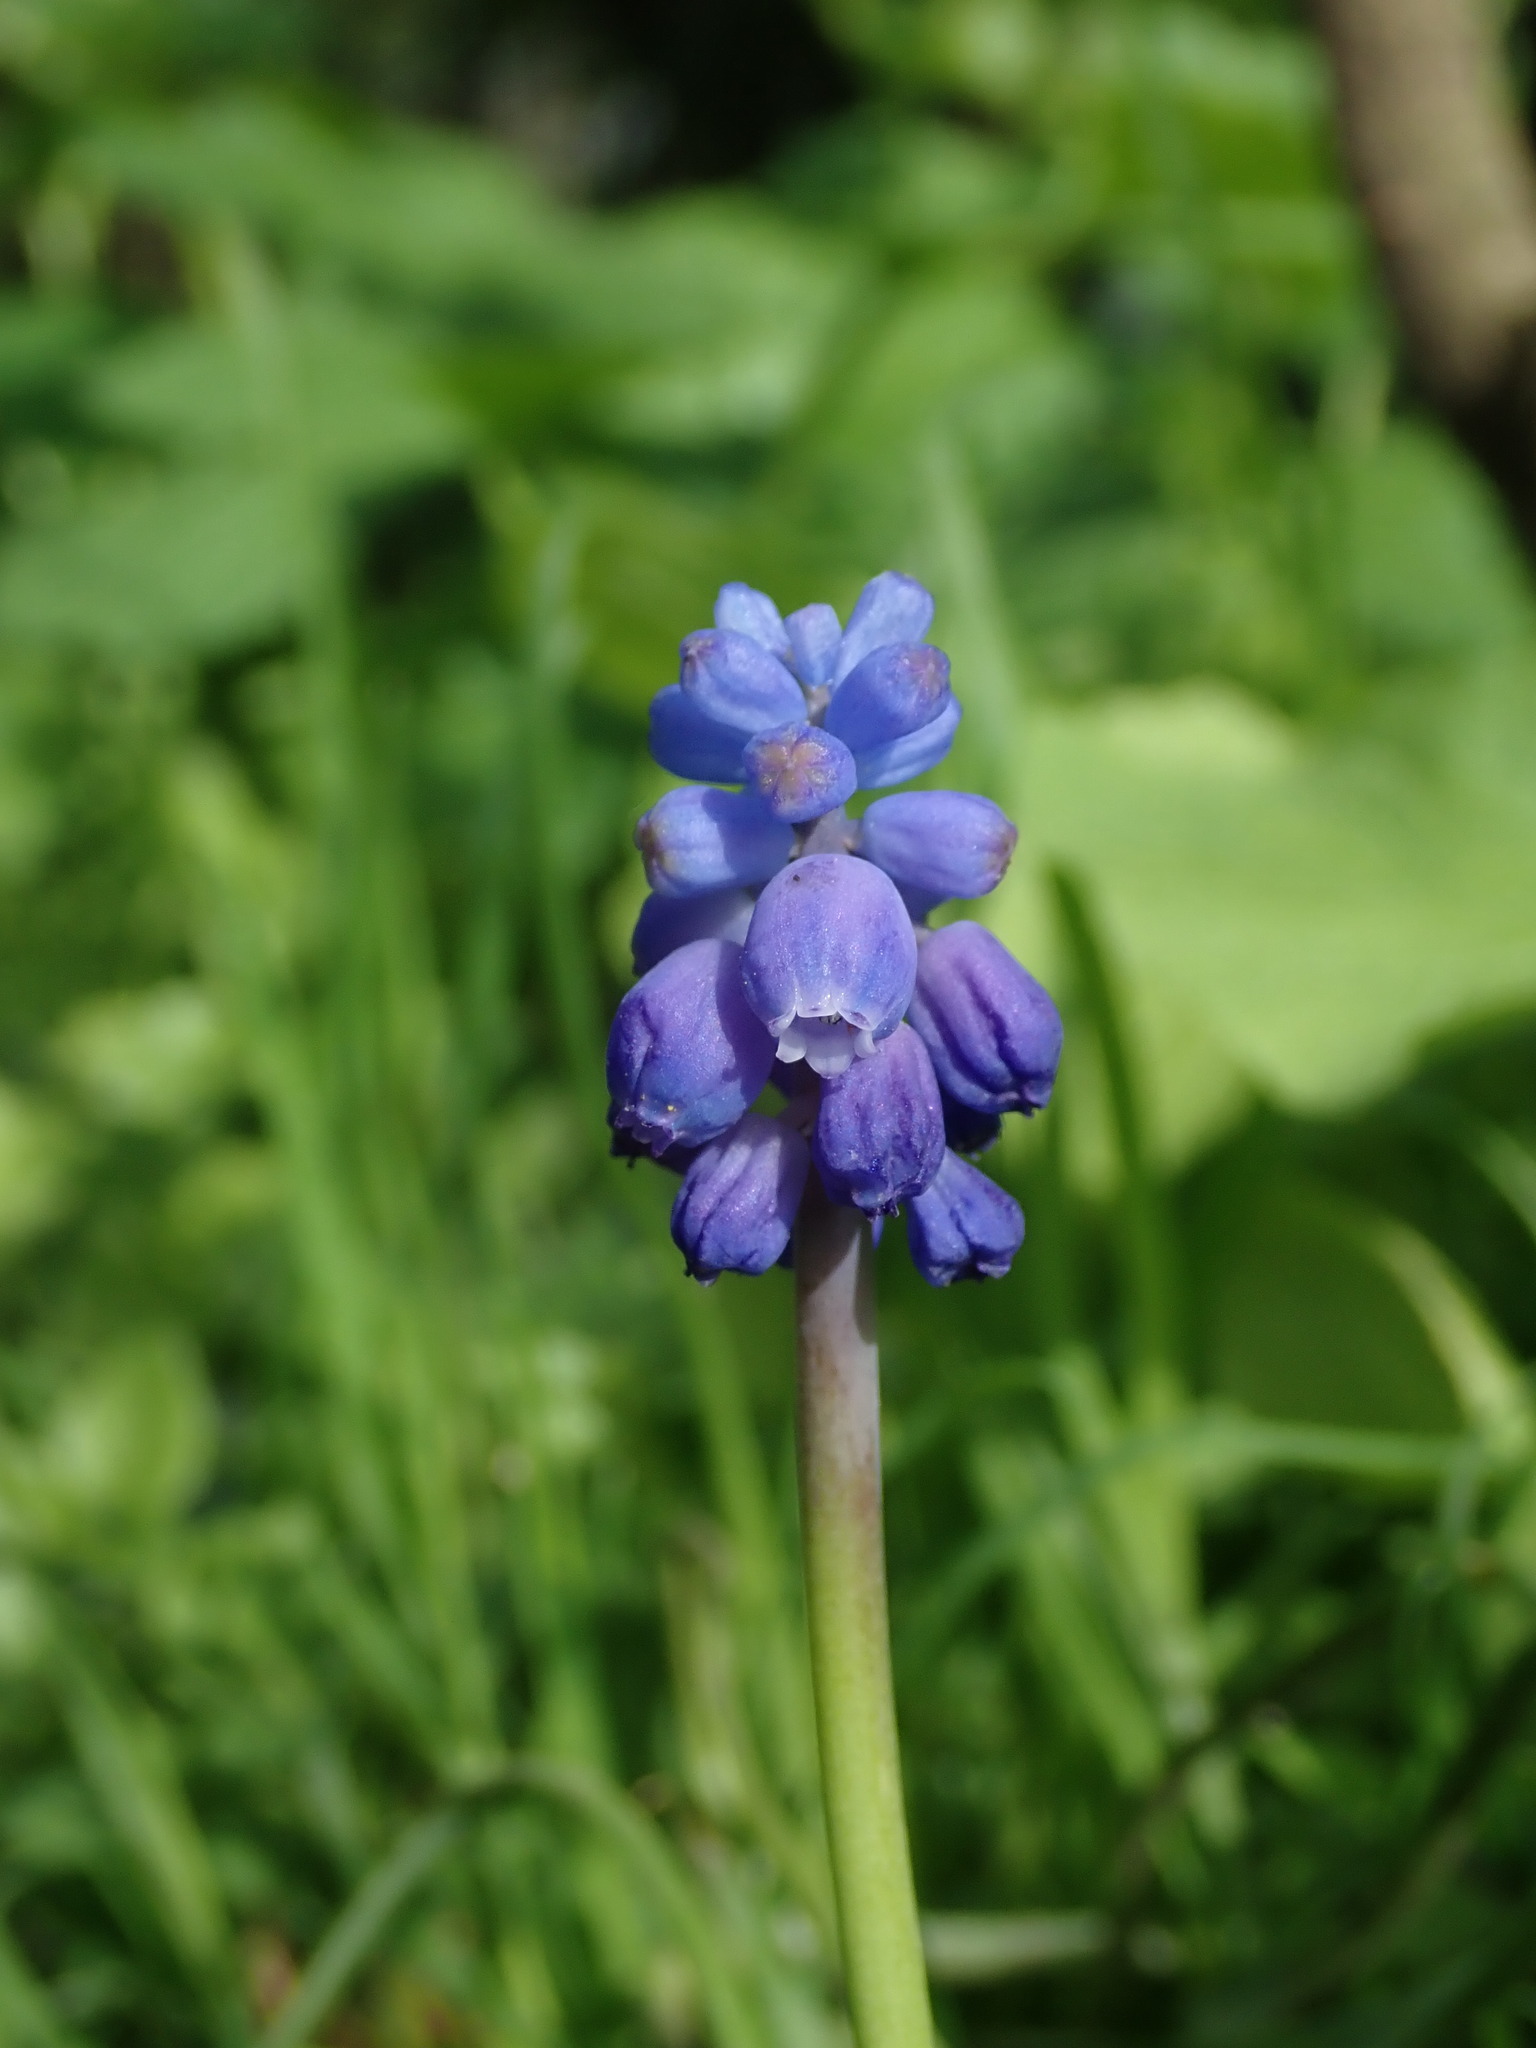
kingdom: Plantae
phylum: Tracheophyta
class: Liliopsida
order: Asparagales
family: Asparagaceae
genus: Muscari
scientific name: Muscari armeniacum
